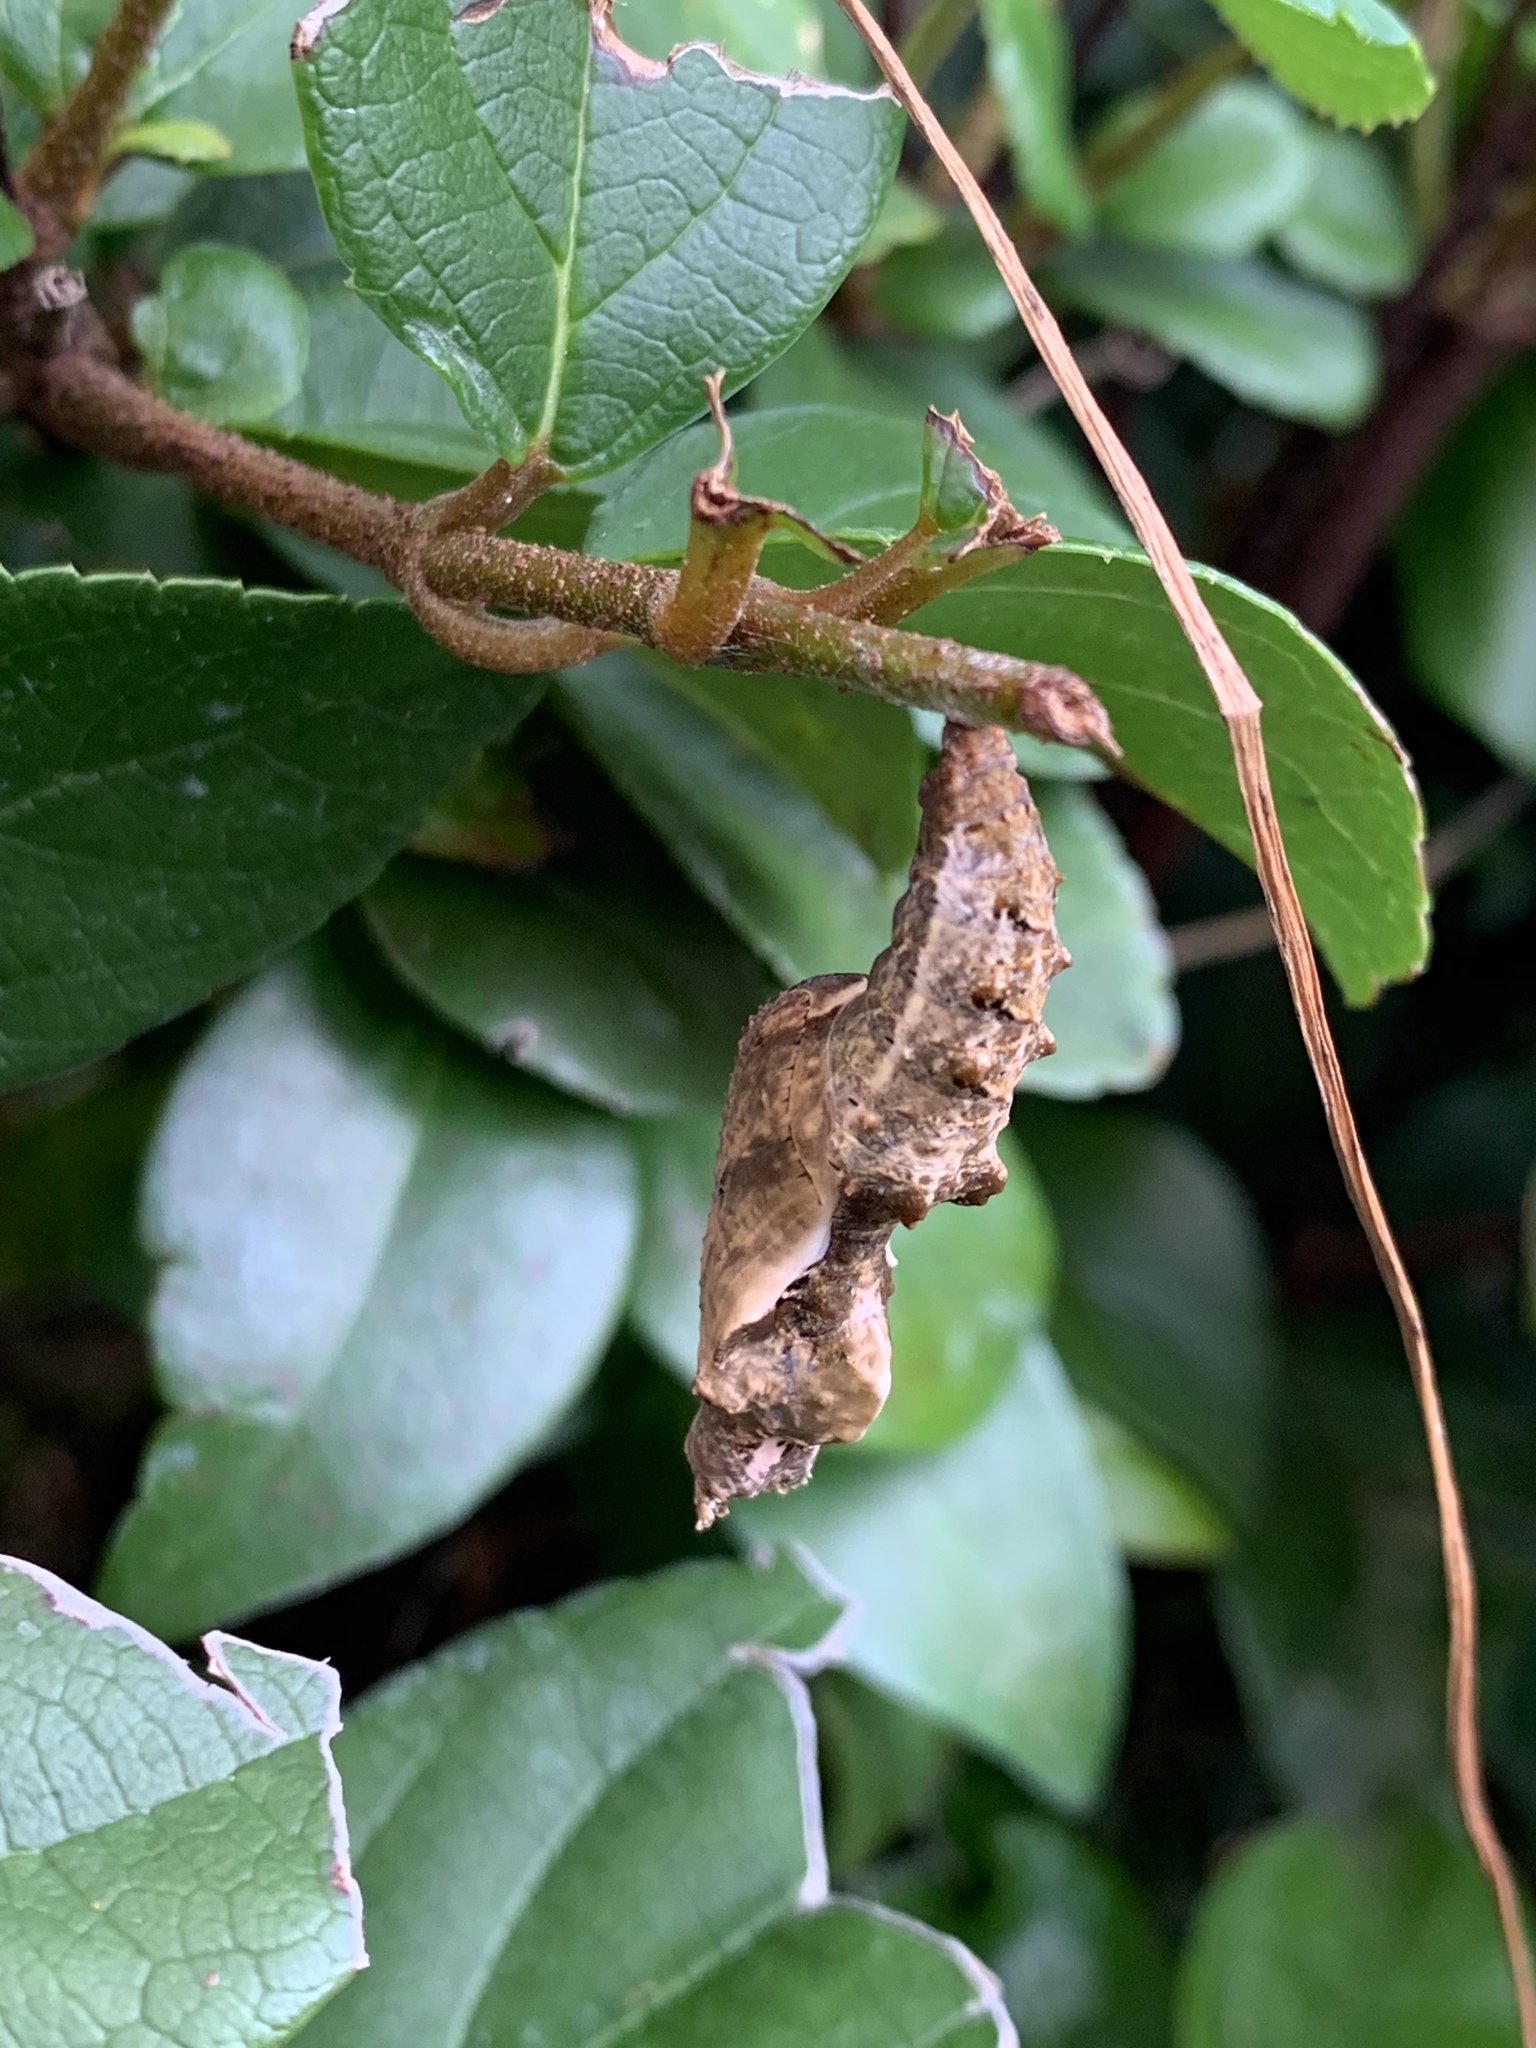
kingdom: Animalia
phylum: Arthropoda
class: Insecta
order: Lepidoptera
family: Nymphalidae
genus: Dione
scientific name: Dione vanillae
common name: Gulf fritillary
